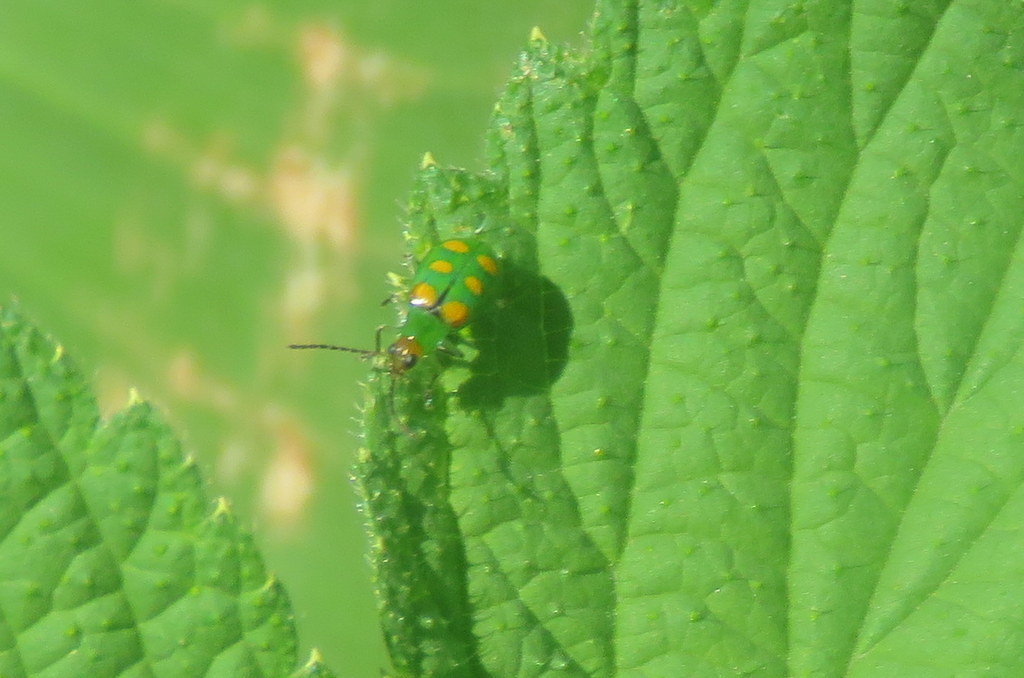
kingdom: Animalia
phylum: Arthropoda
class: Insecta
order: Coleoptera
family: Chrysomelidae
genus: Diabrotica
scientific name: Diabrotica speciosa
